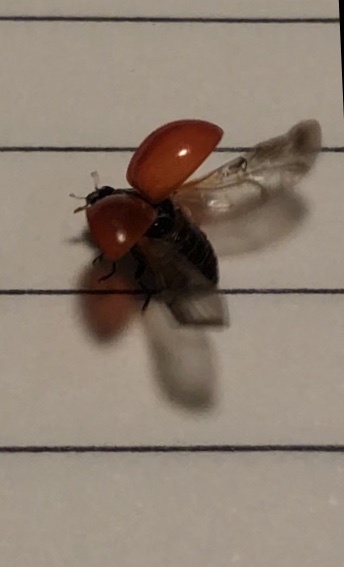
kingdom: Animalia
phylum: Arthropoda
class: Insecta
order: Coleoptera
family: Coccinellidae
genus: Cycloneda
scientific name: Cycloneda sanguinea
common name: Ladybird beetle
